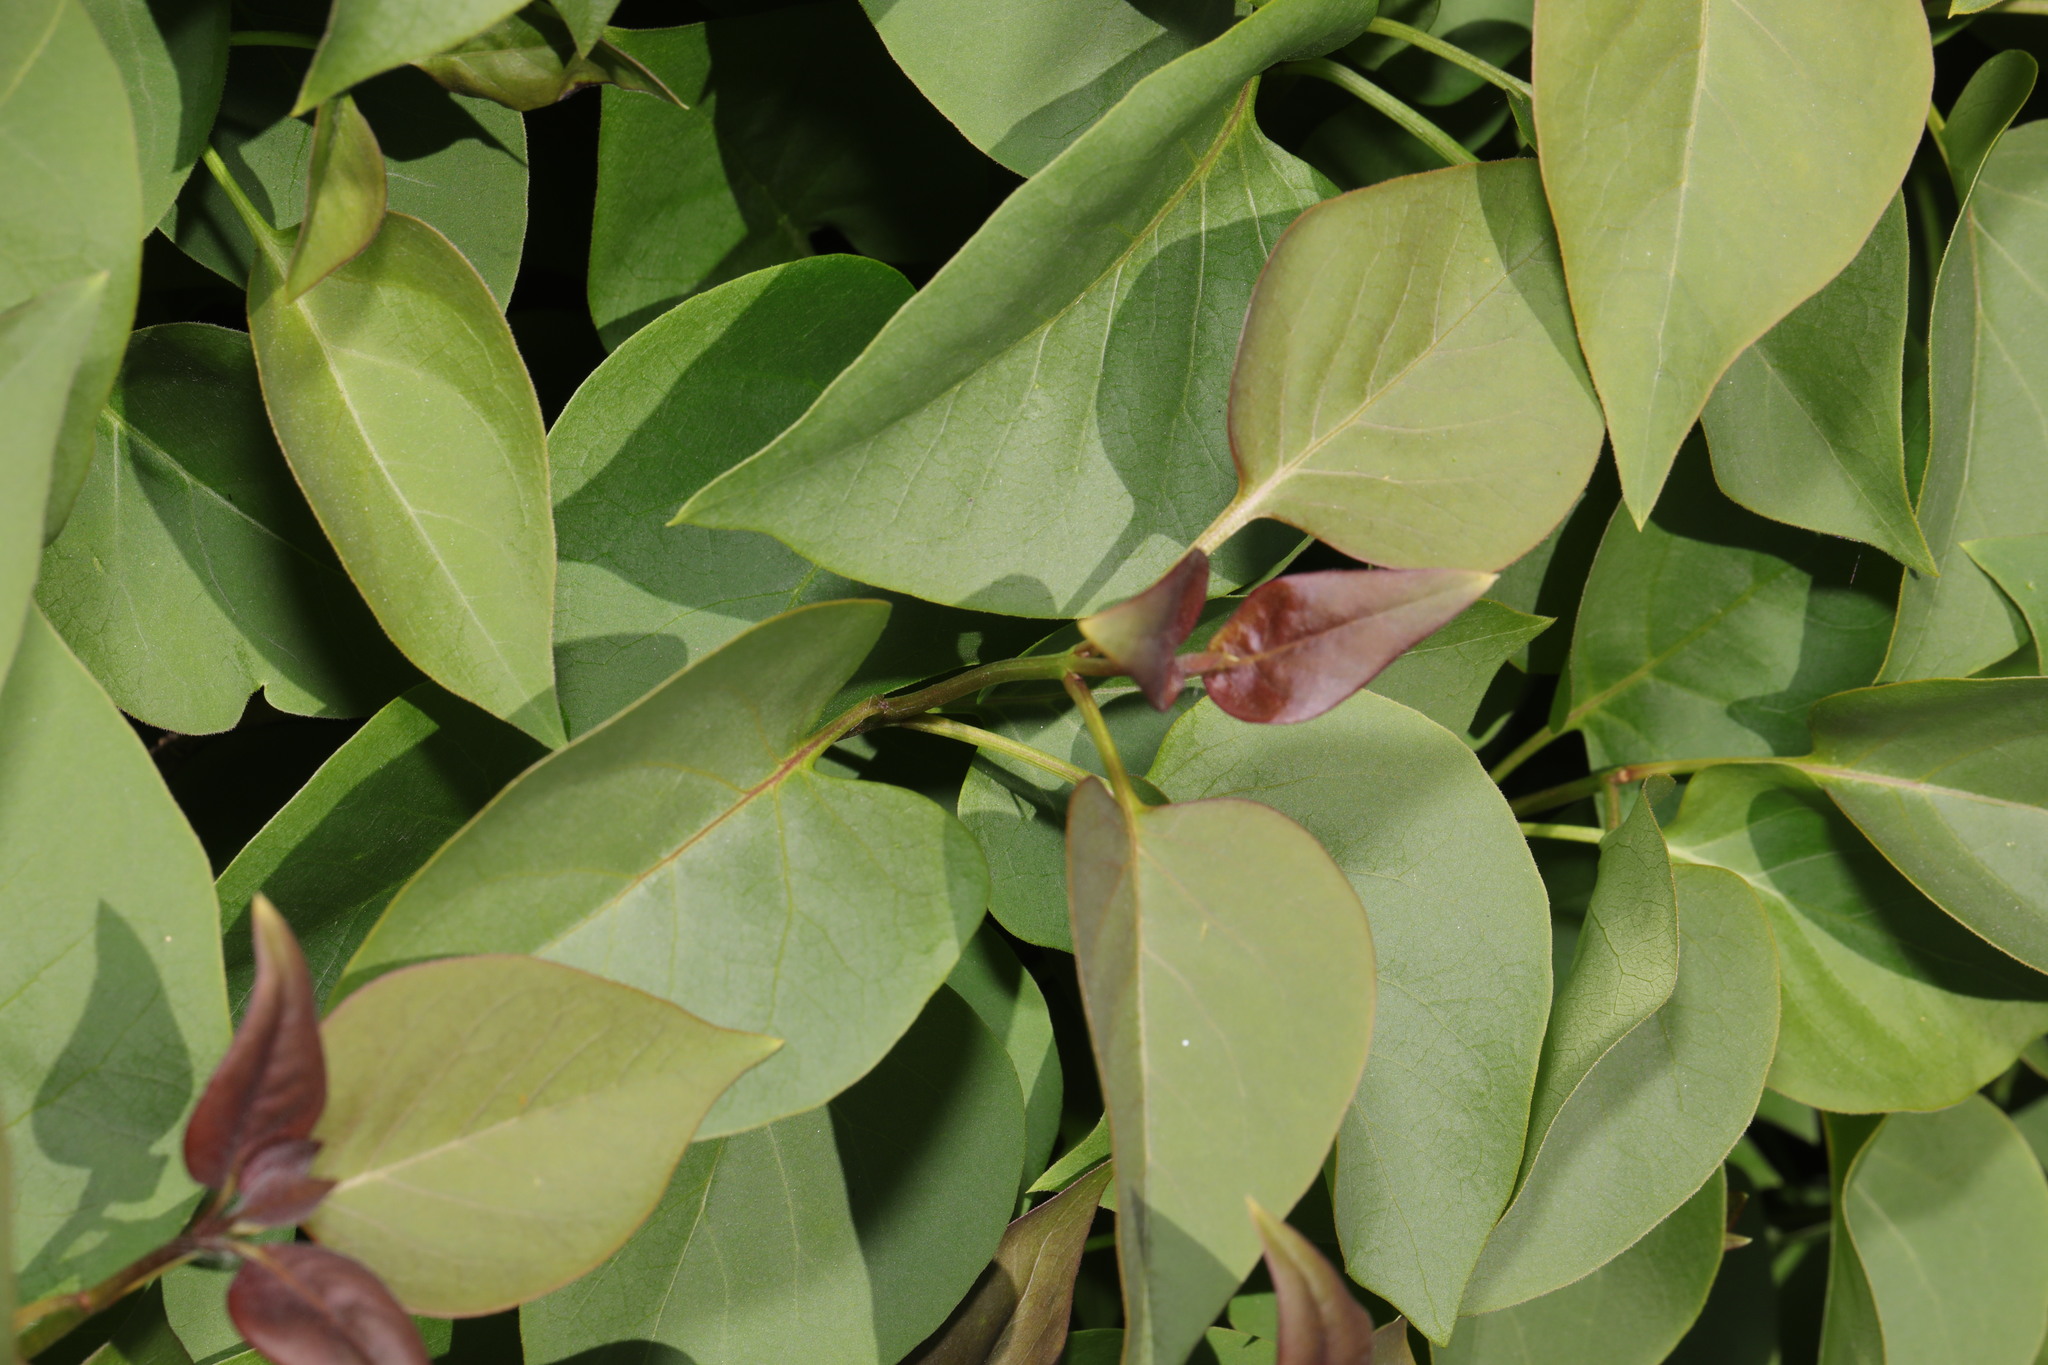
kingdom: Plantae
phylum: Tracheophyta
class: Magnoliopsida
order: Lamiales
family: Oleaceae
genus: Syringa
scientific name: Syringa vulgaris
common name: Common lilac
